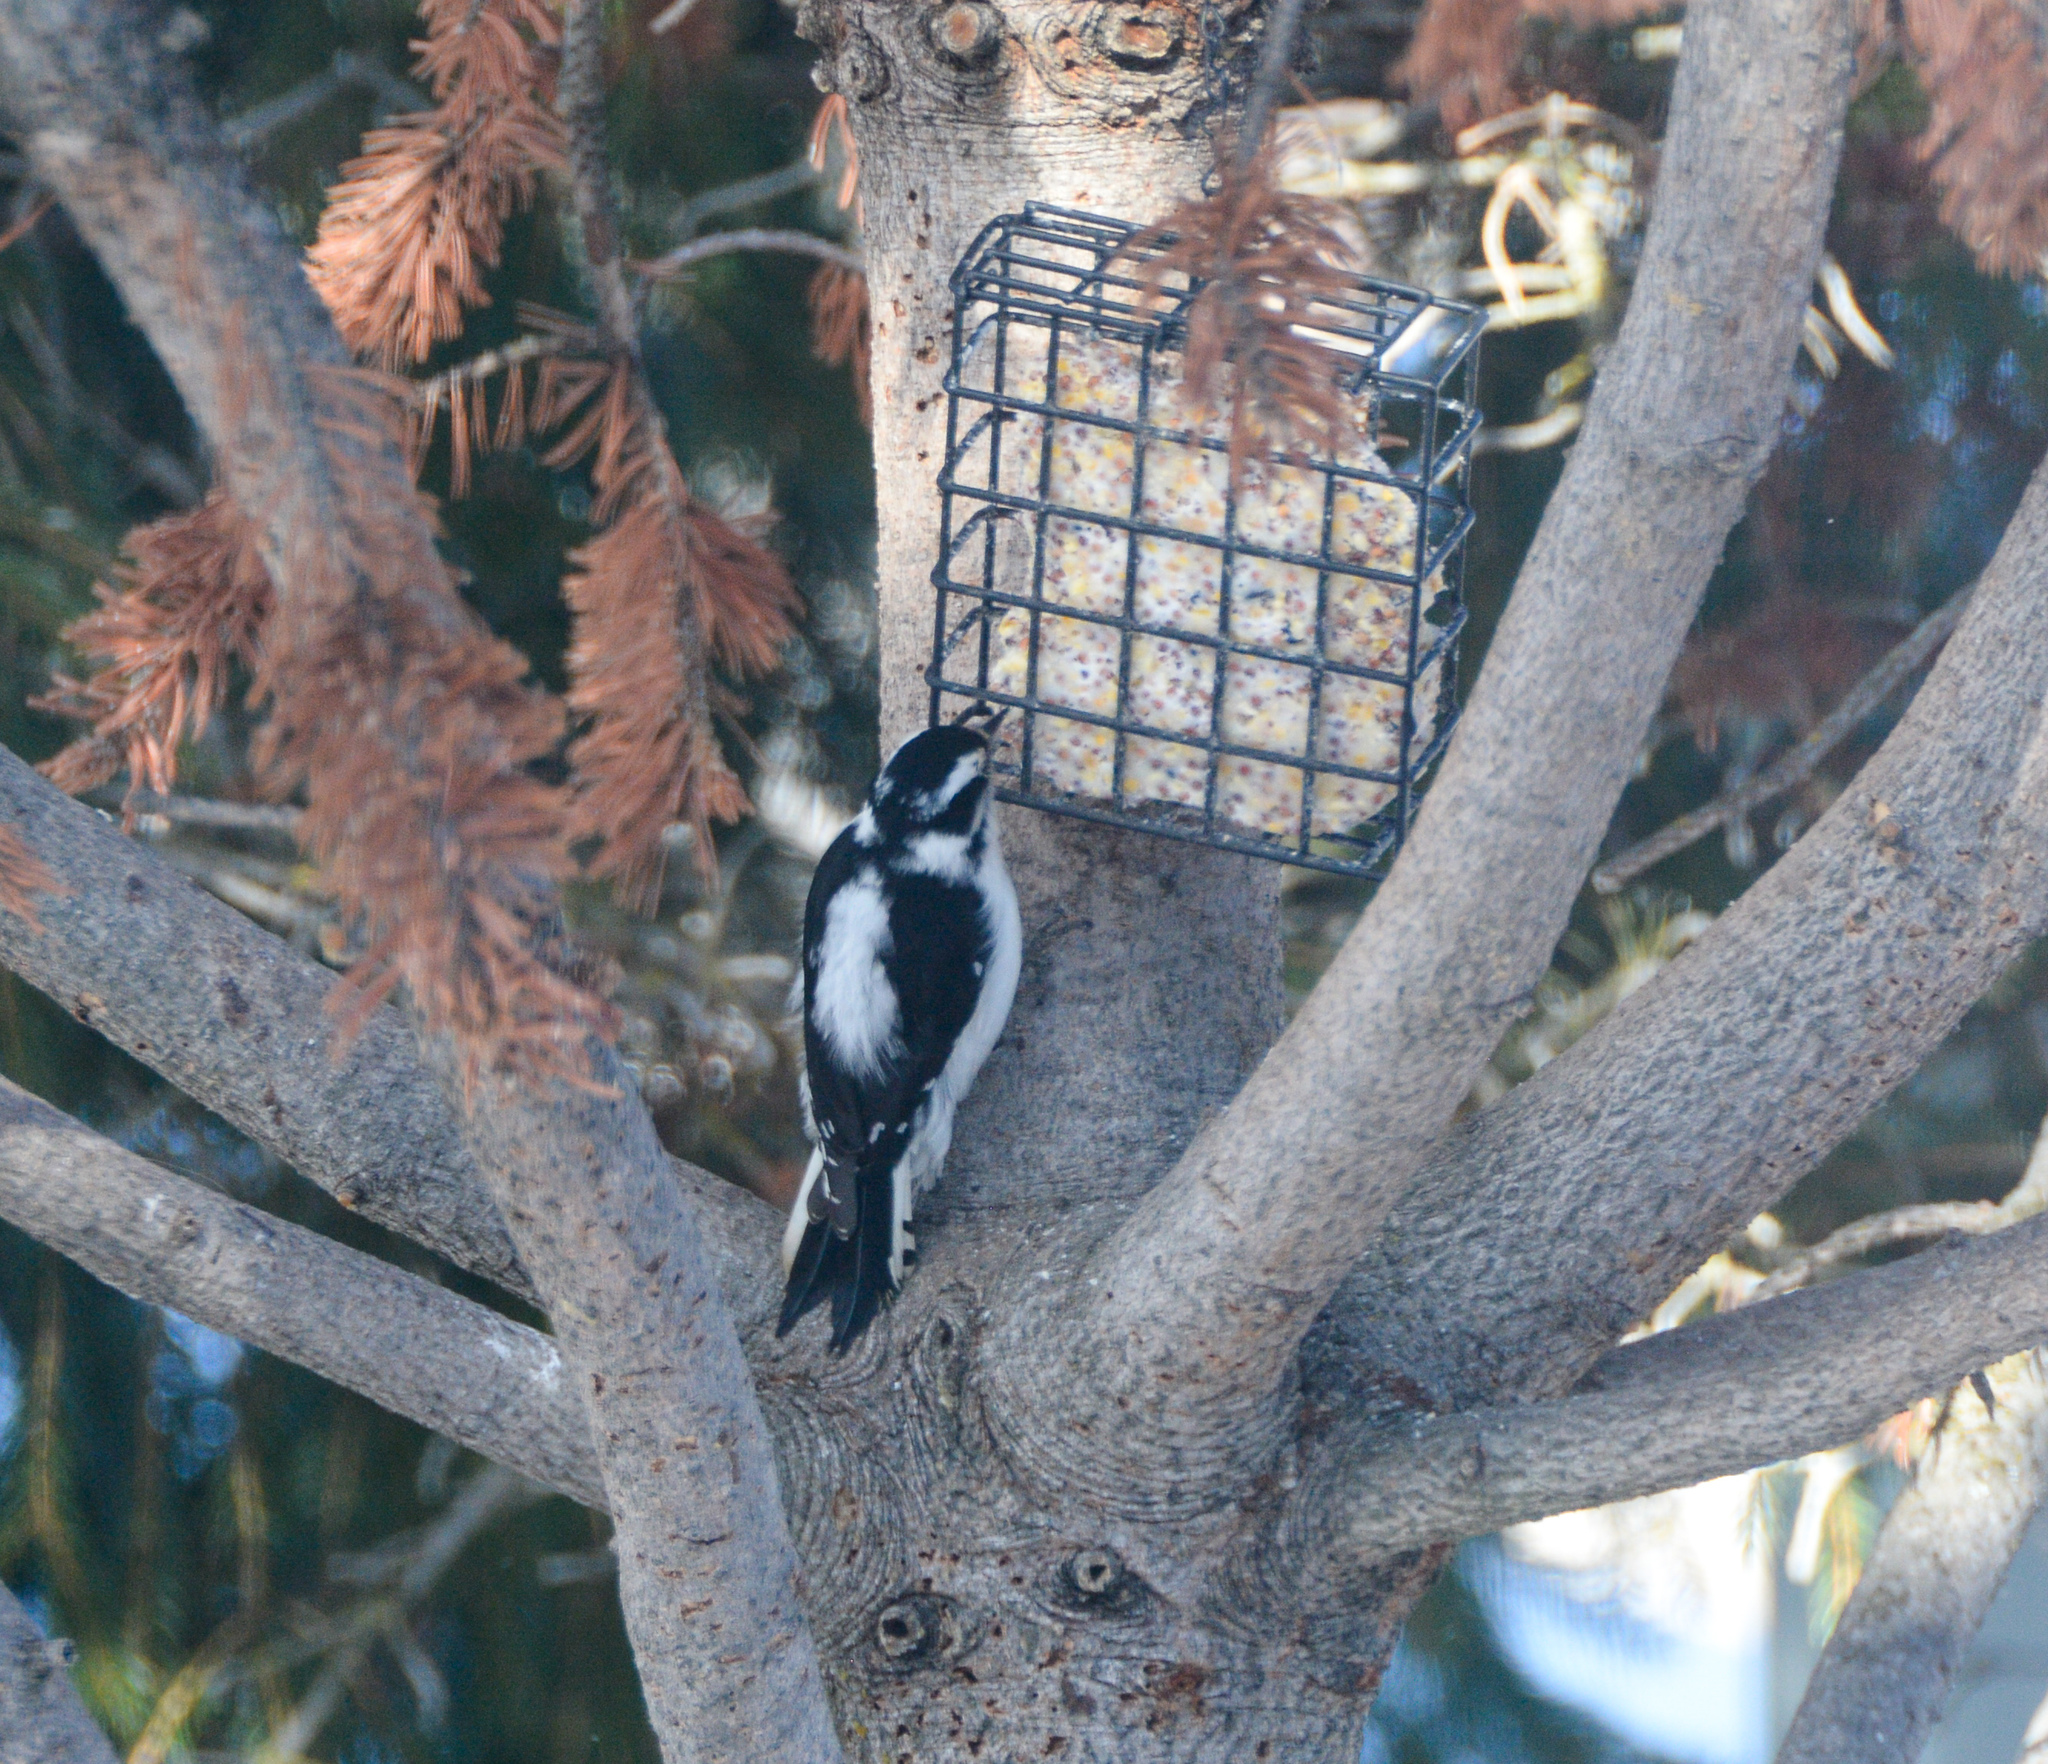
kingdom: Animalia
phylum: Chordata
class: Aves
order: Piciformes
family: Picidae
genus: Dryobates
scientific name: Dryobates pubescens
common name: Downy woodpecker
